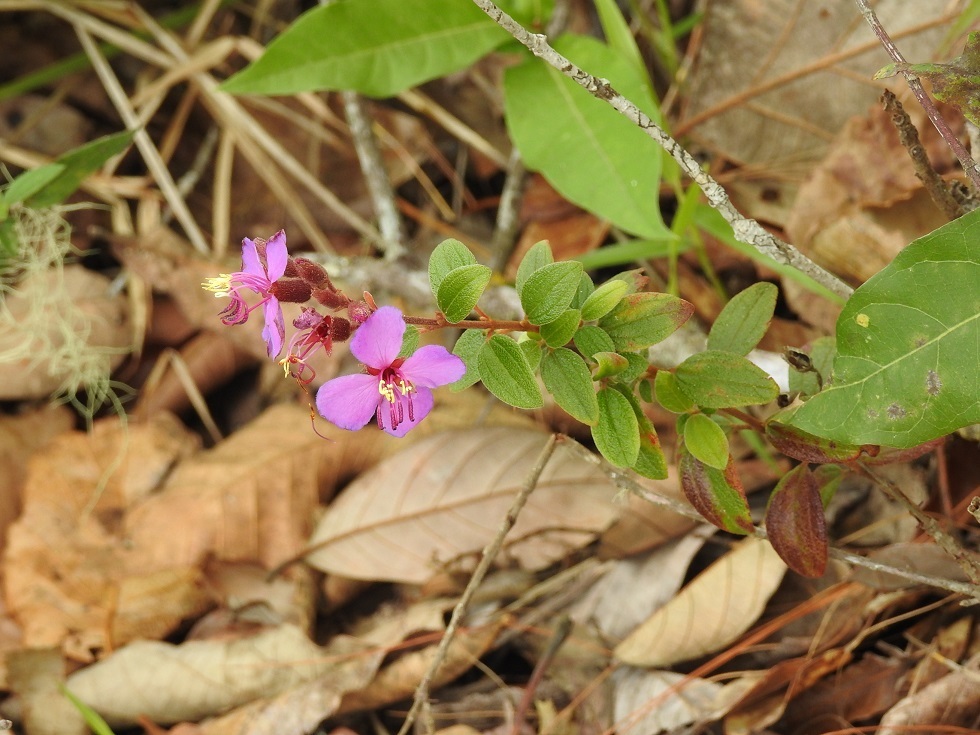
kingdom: Plantae
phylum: Tracheophyta
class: Magnoliopsida
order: Myrtales
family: Melastomataceae
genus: Heterocentron
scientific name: Heterocentron muricatum
